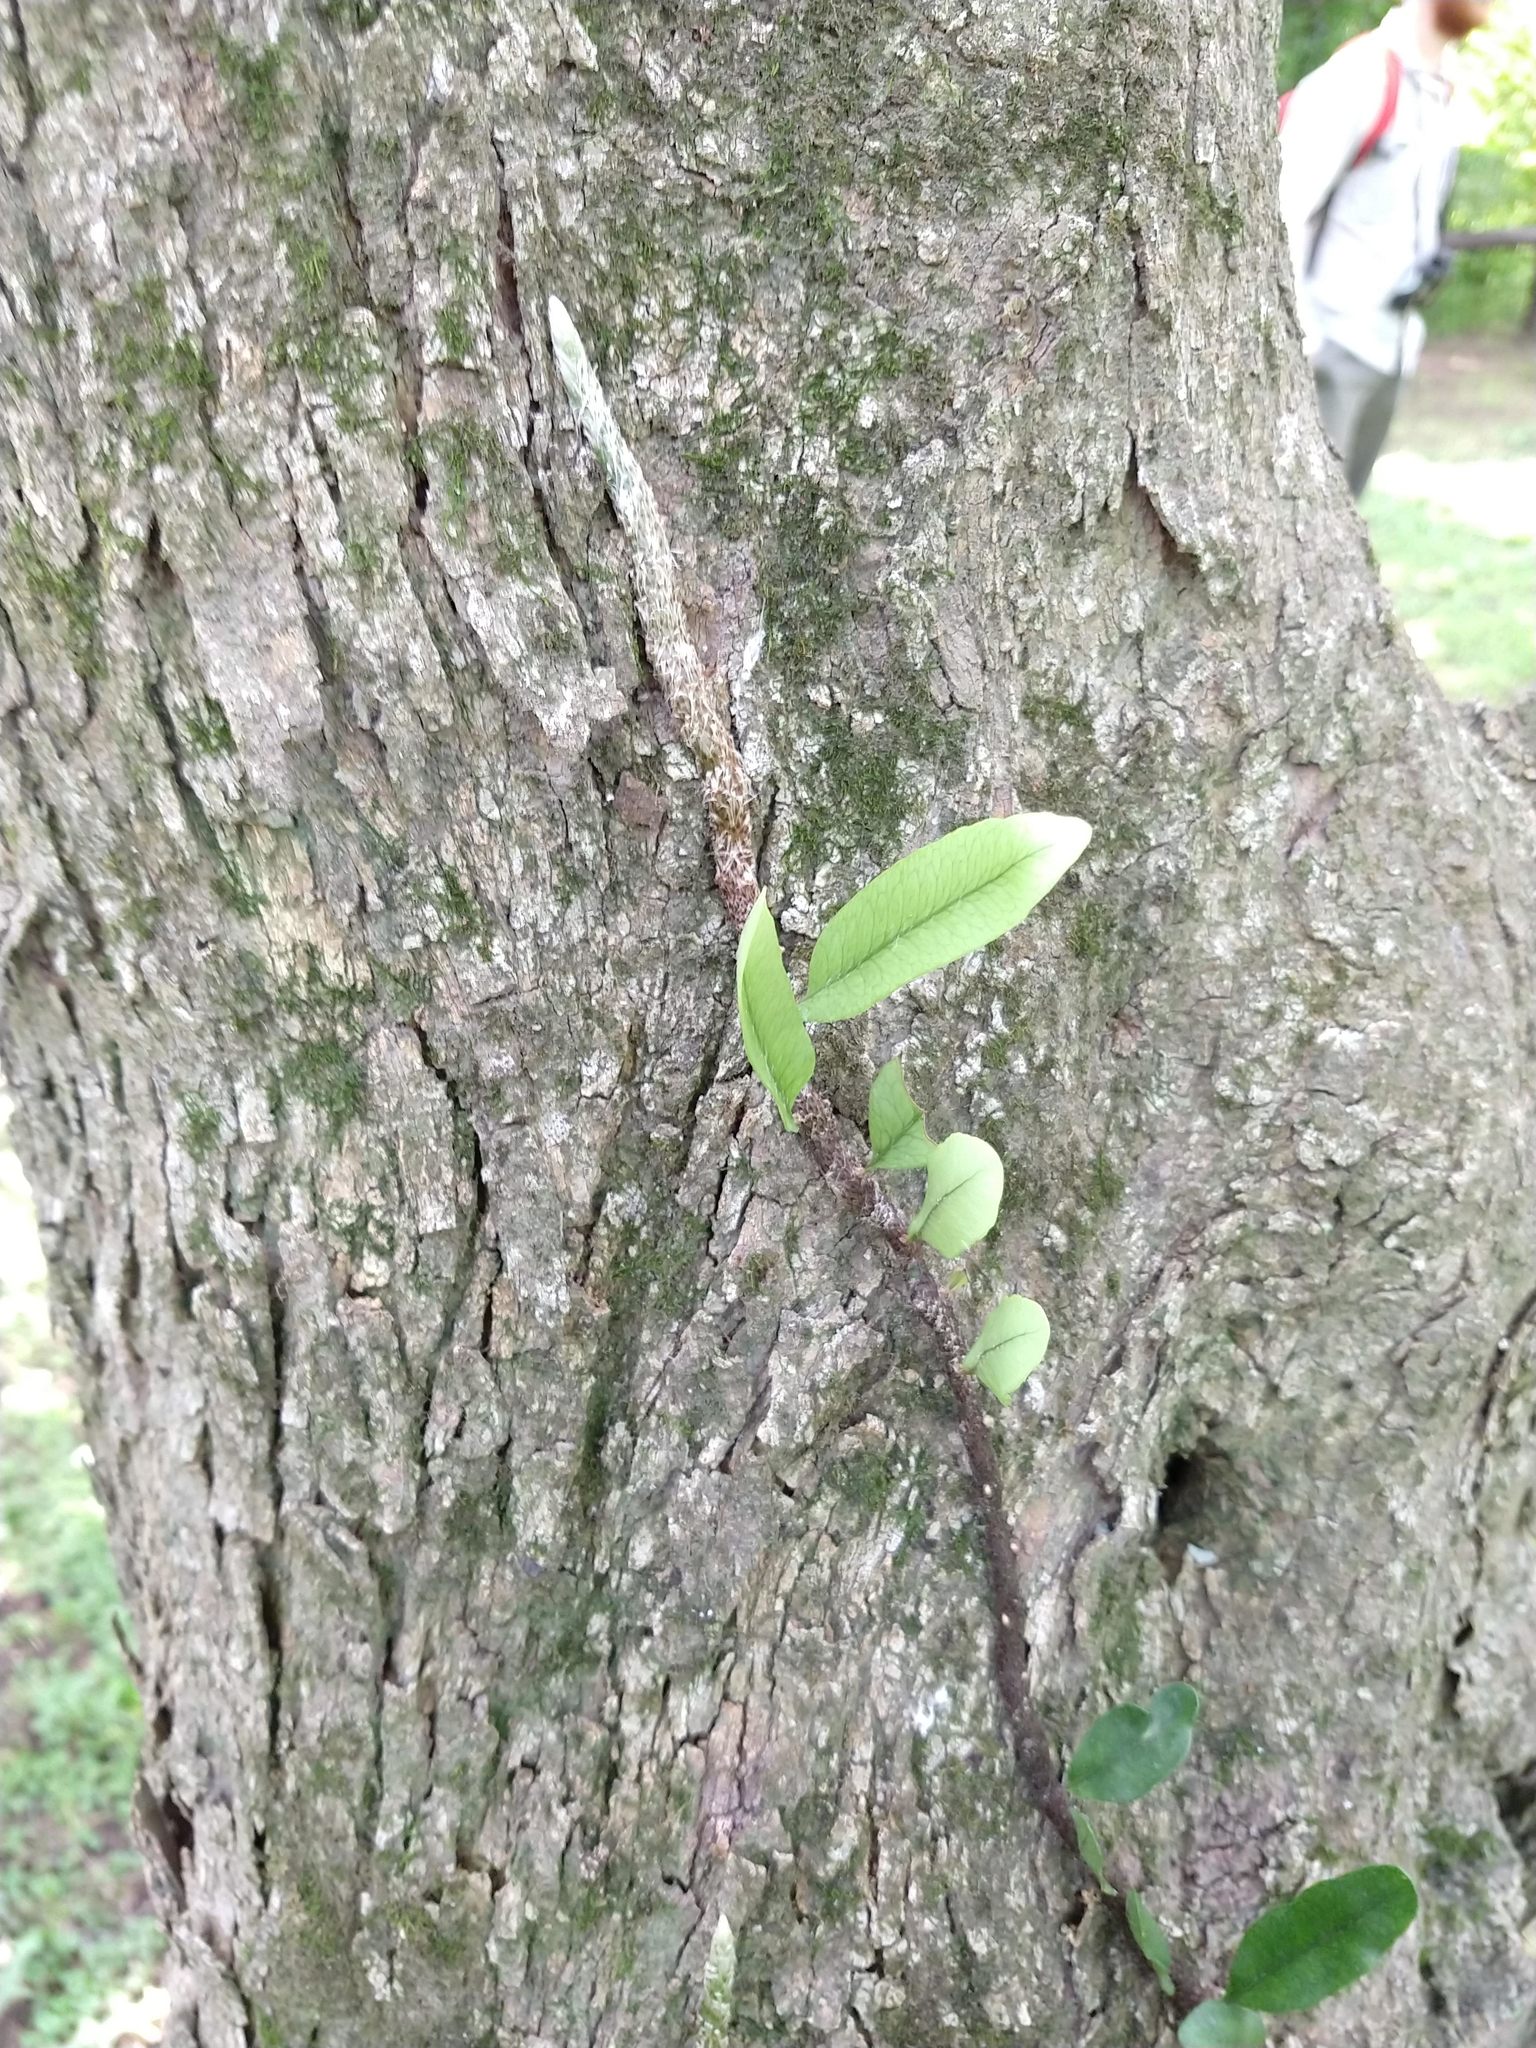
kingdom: Plantae
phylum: Tracheophyta
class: Polypodiopsida
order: Polypodiales
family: Polypodiaceae
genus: Microgramma
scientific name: Microgramma mortoniana
